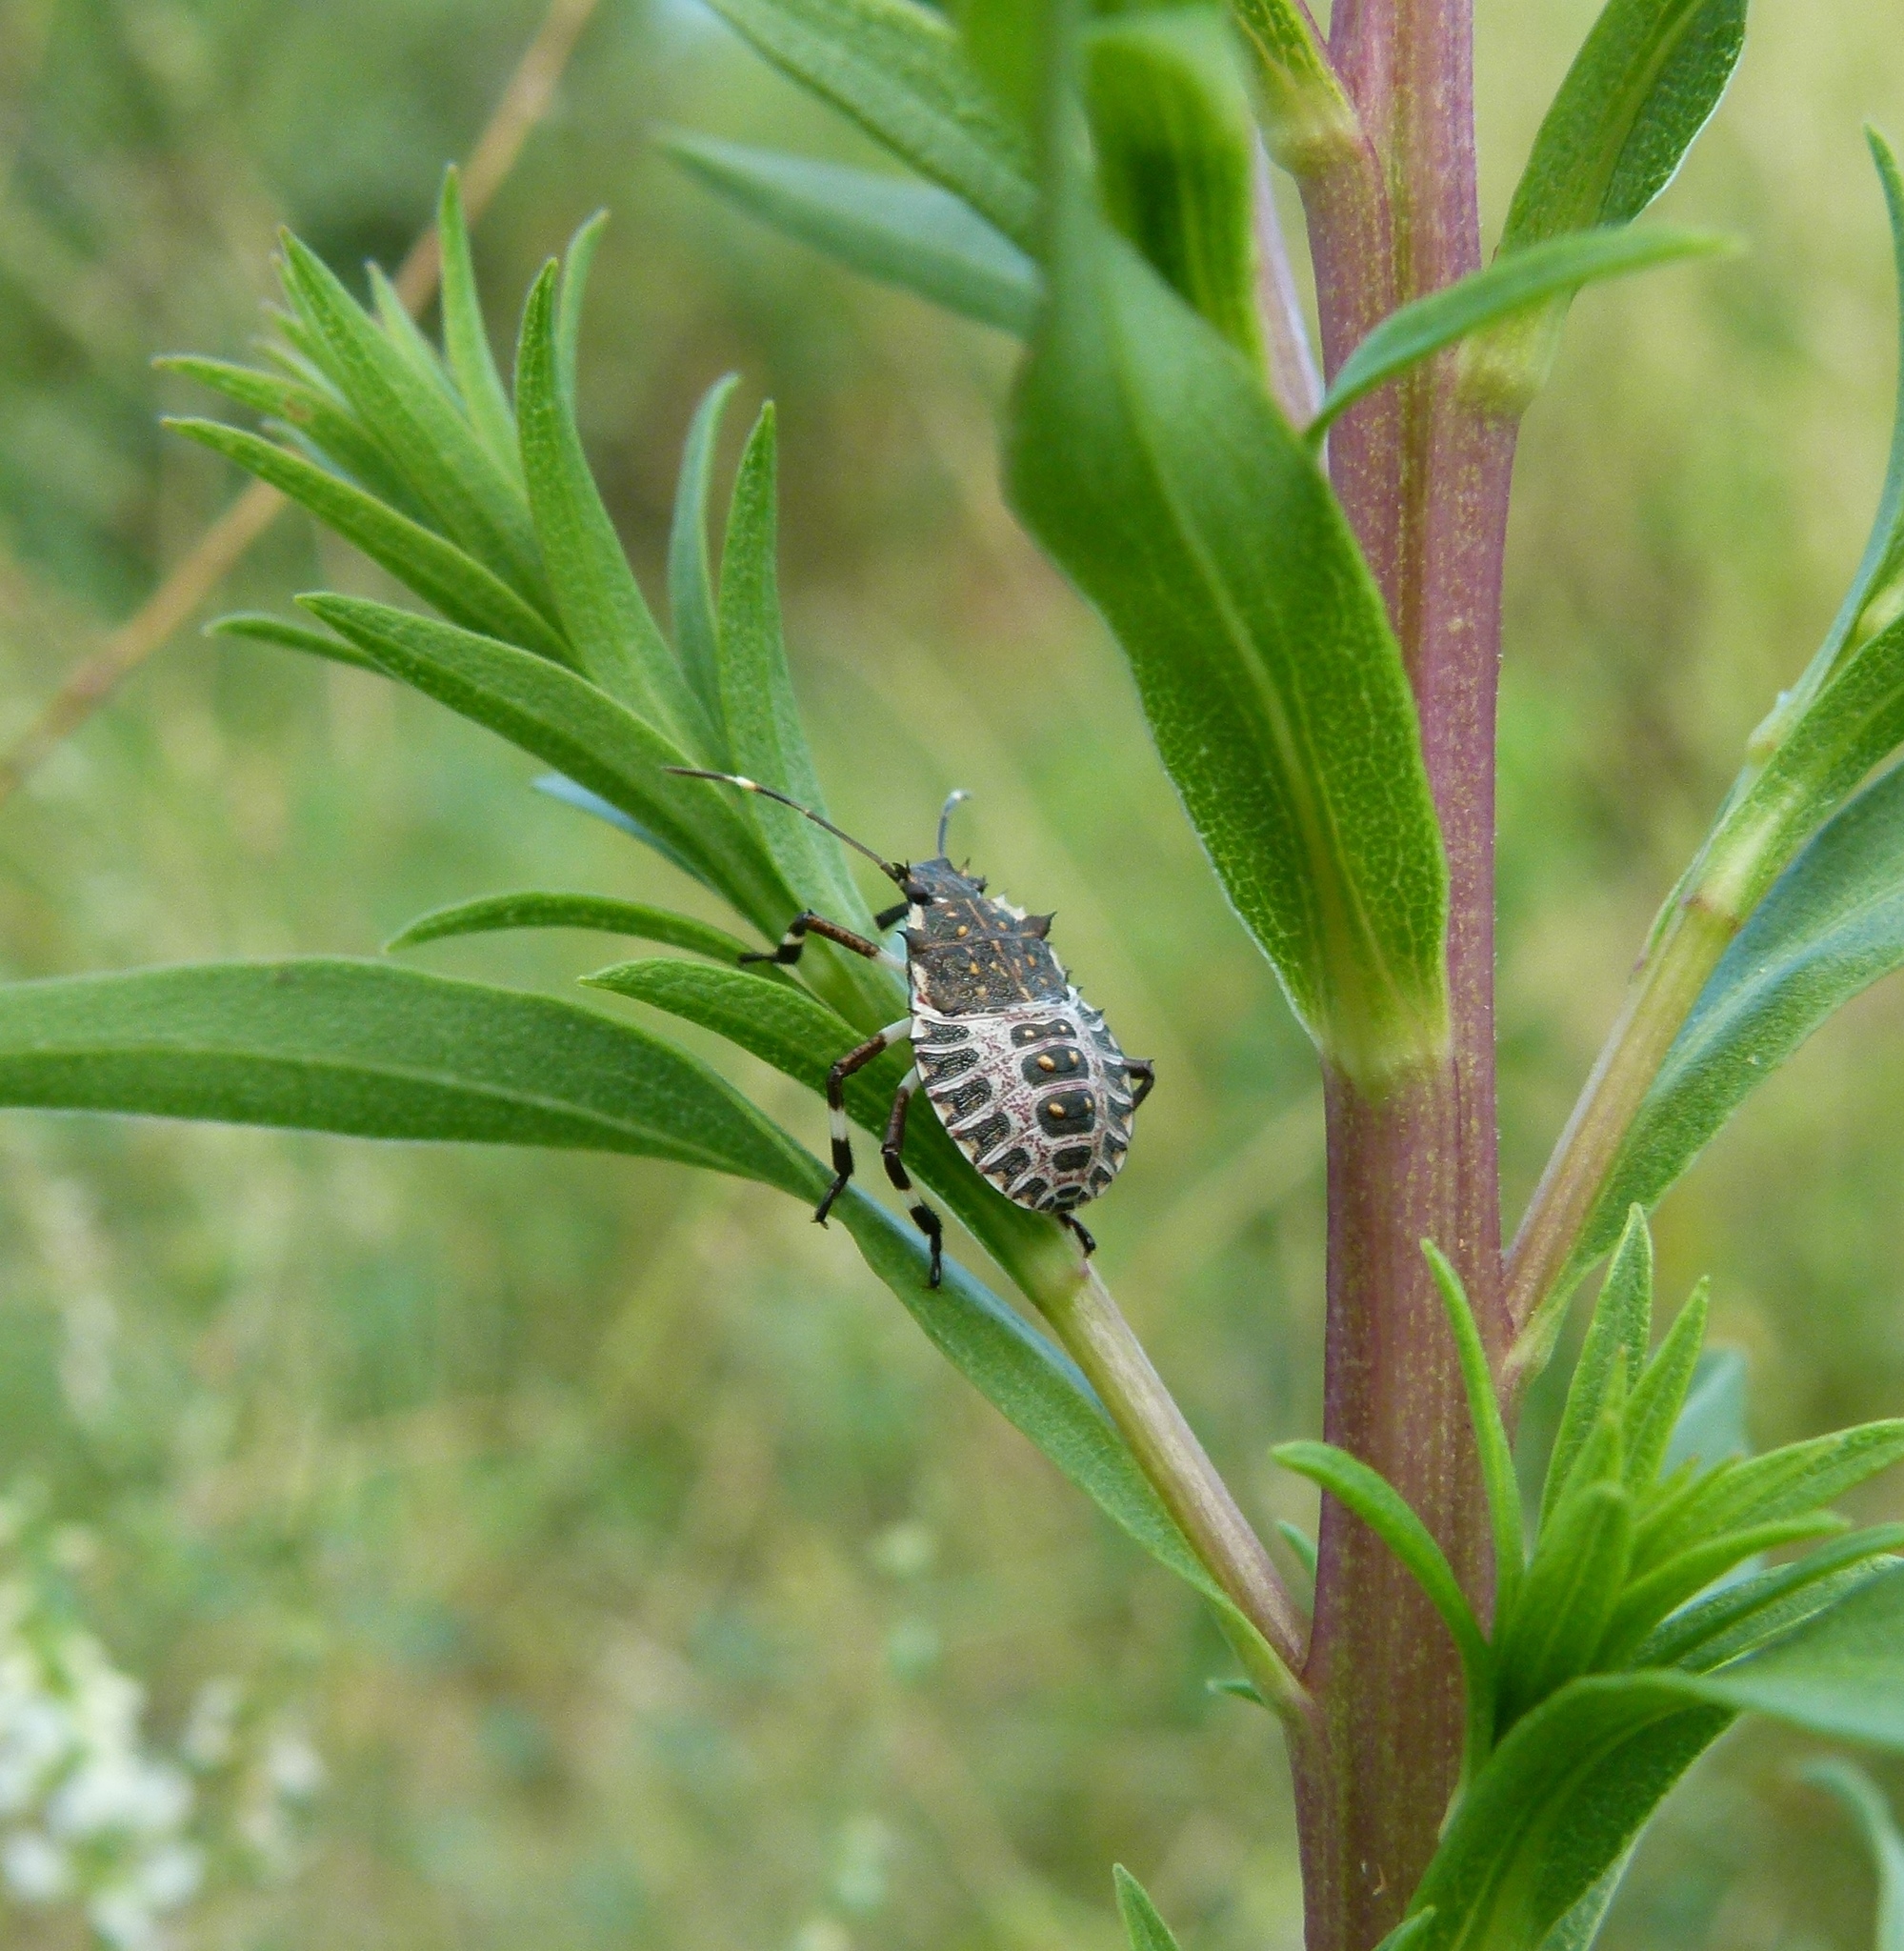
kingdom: Animalia
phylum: Arthropoda
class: Insecta
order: Hemiptera
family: Pentatomidae
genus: Halyomorpha
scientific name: Halyomorpha halys
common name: Brown marmorated stink bug
